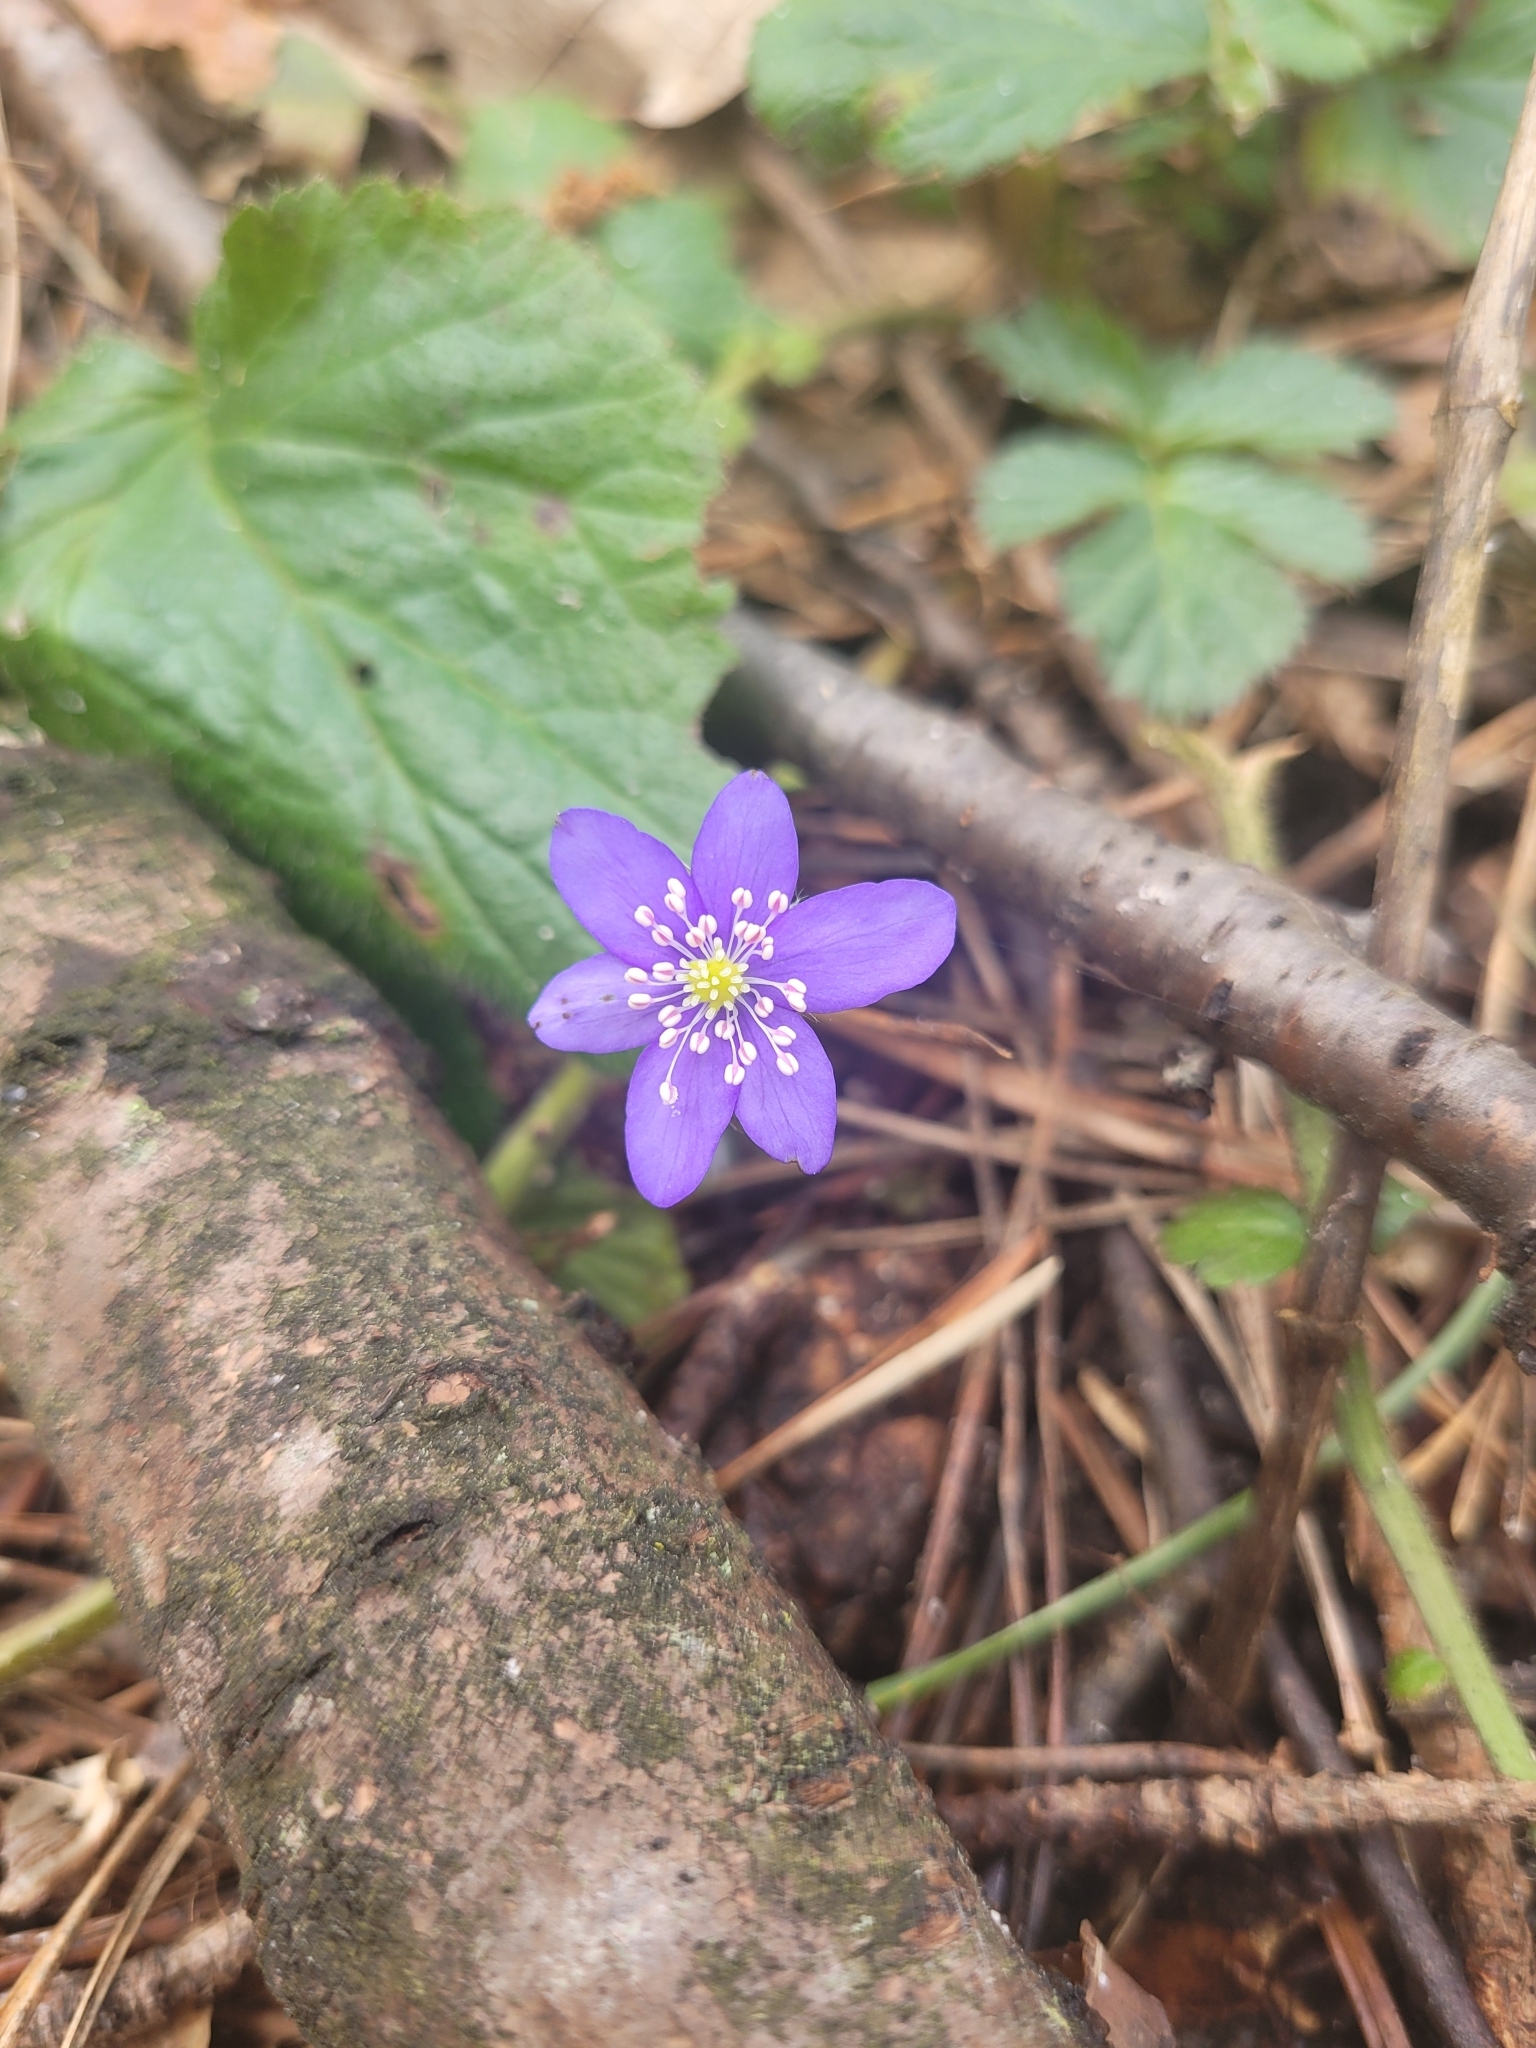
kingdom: Plantae
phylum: Tracheophyta
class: Magnoliopsida
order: Ranunculales
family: Ranunculaceae
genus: Hepatica
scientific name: Hepatica nobilis
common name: Liverleaf
